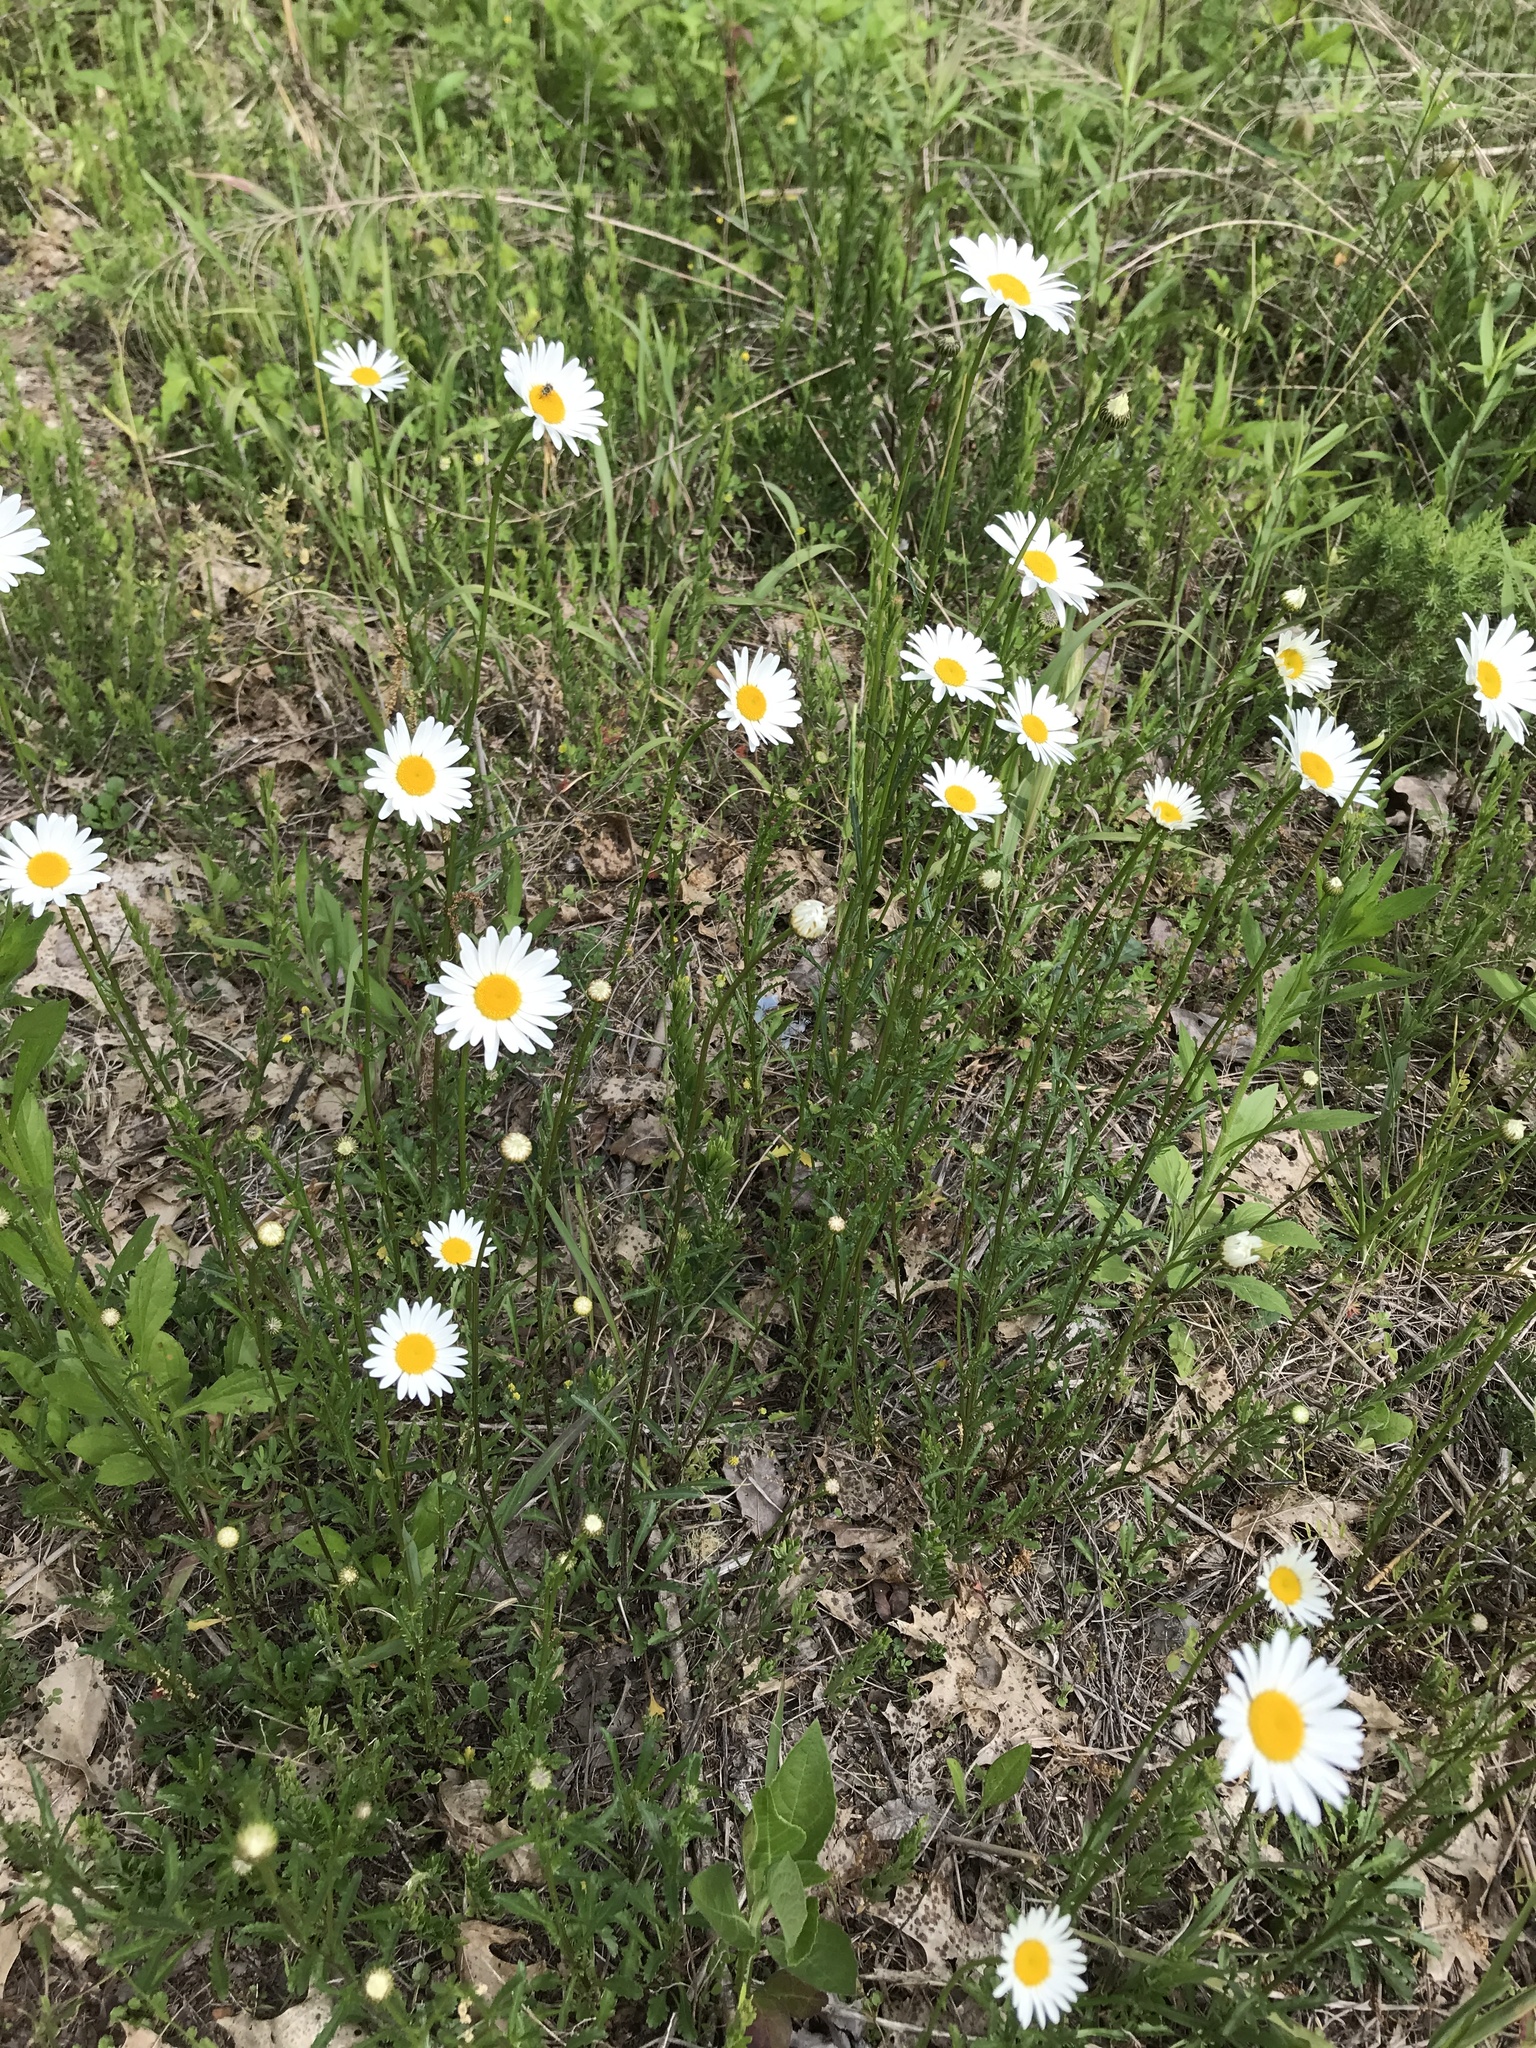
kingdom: Plantae
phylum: Tracheophyta
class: Magnoliopsida
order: Asterales
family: Asteraceae
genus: Leucanthemum
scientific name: Leucanthemum vulgare
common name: Oxeye daisy
